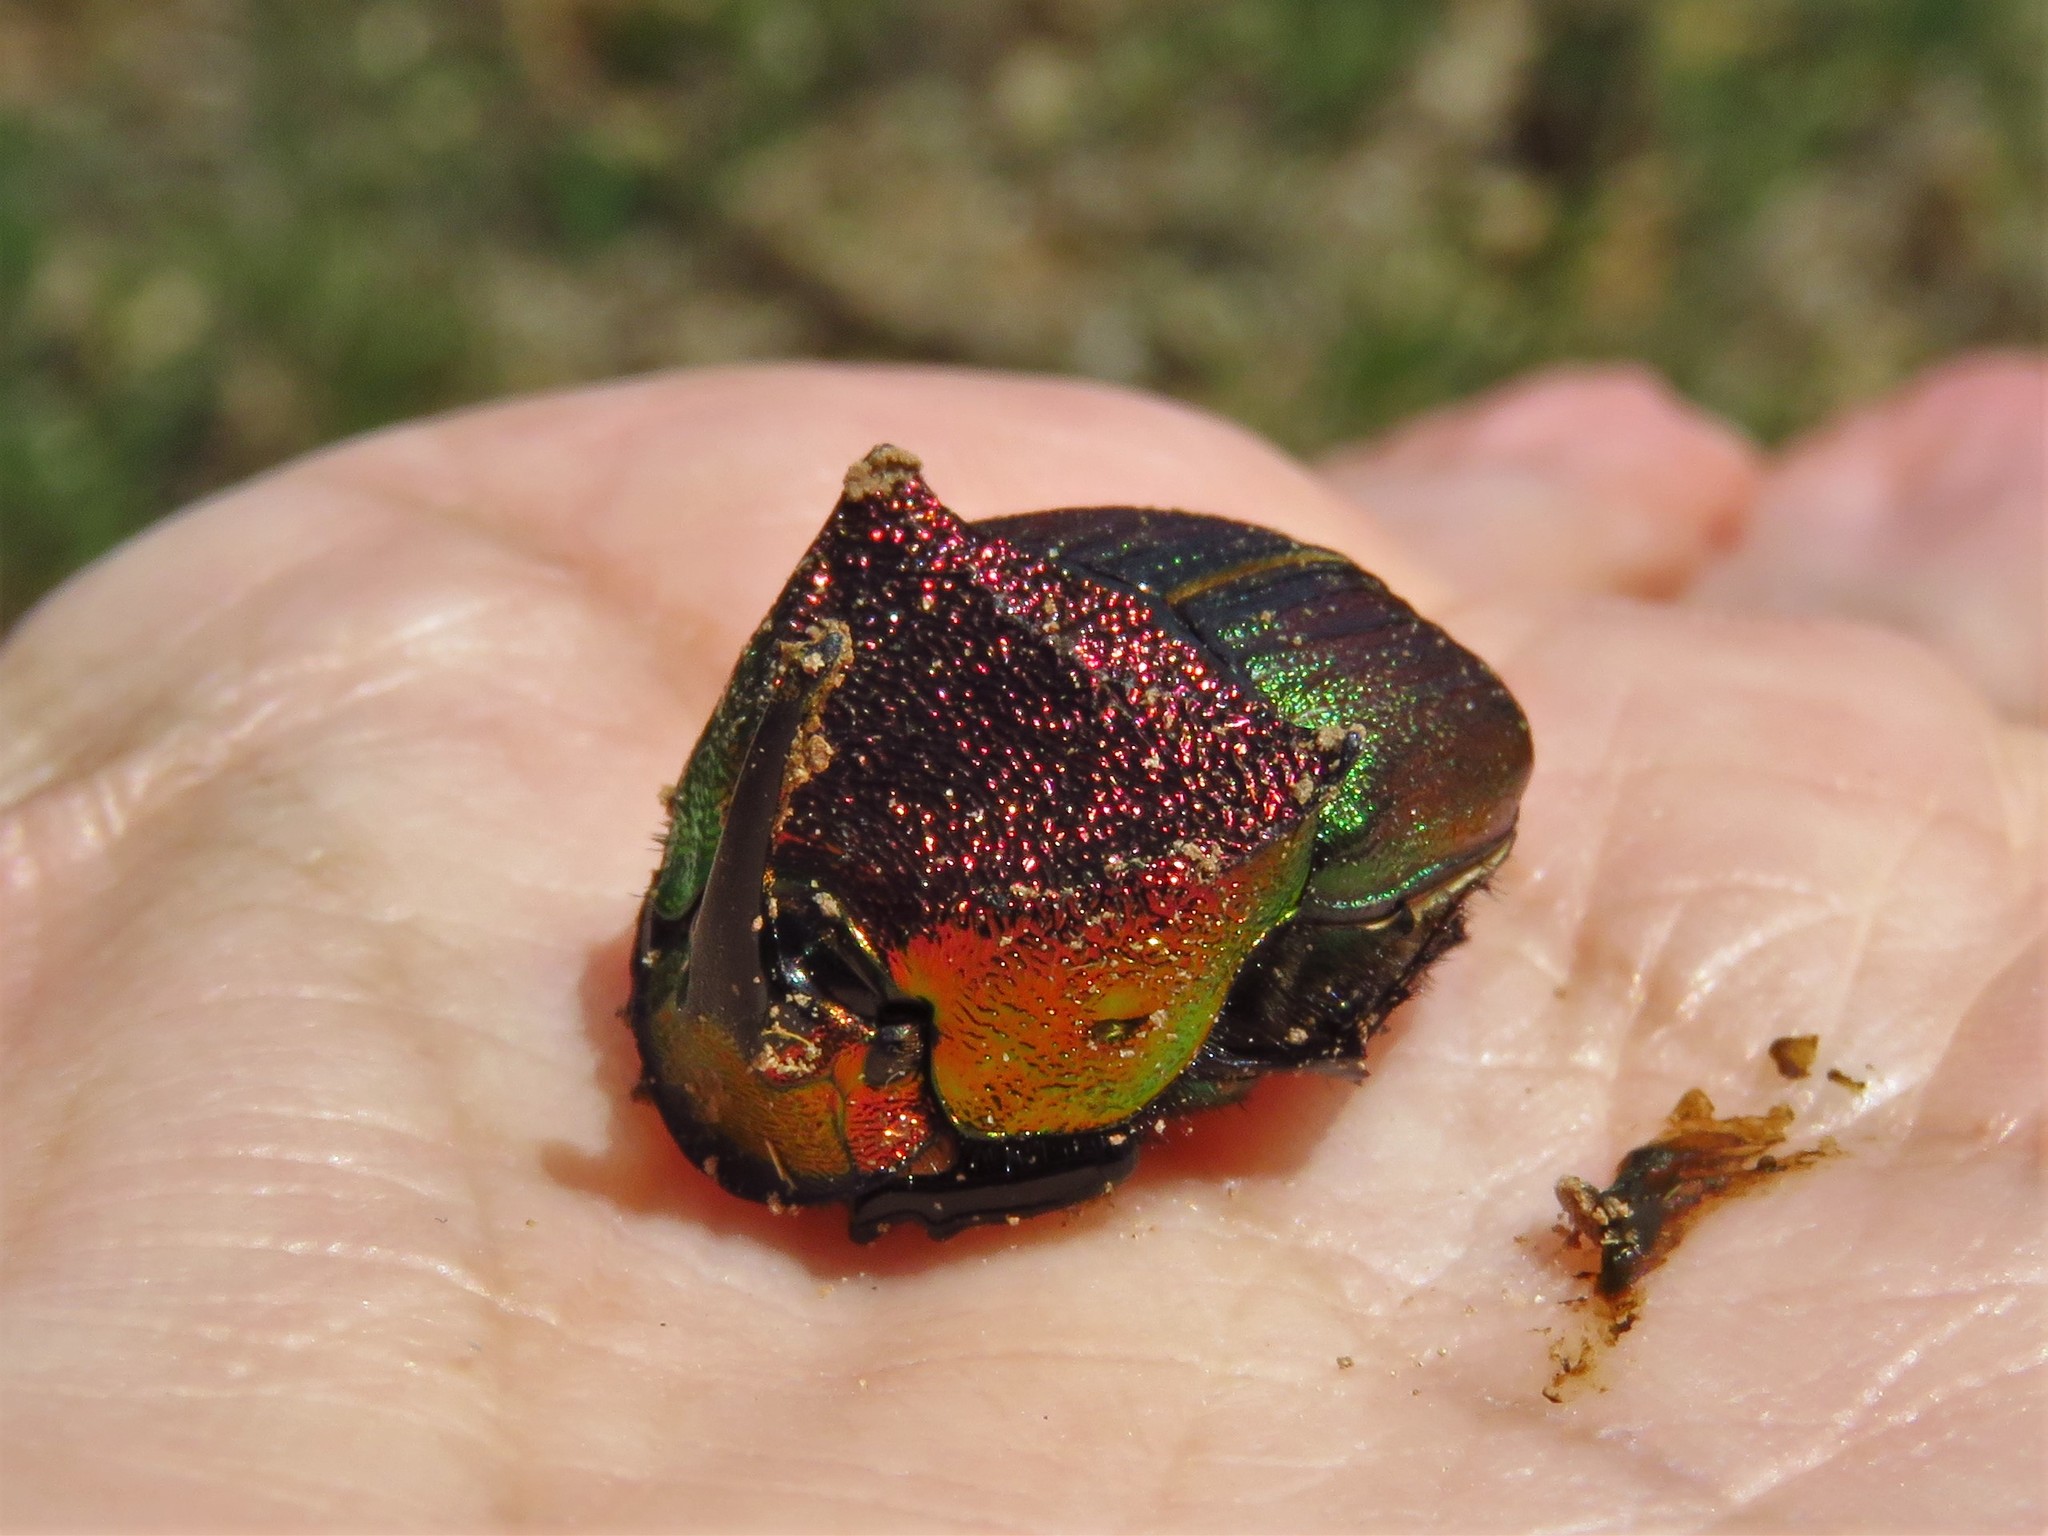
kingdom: Animalia
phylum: Arthropoda
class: Insecta
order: Coleoptera
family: Scarabaeidae
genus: Phanaeus
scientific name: Phanaeus vindex
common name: Rainbow scarab
